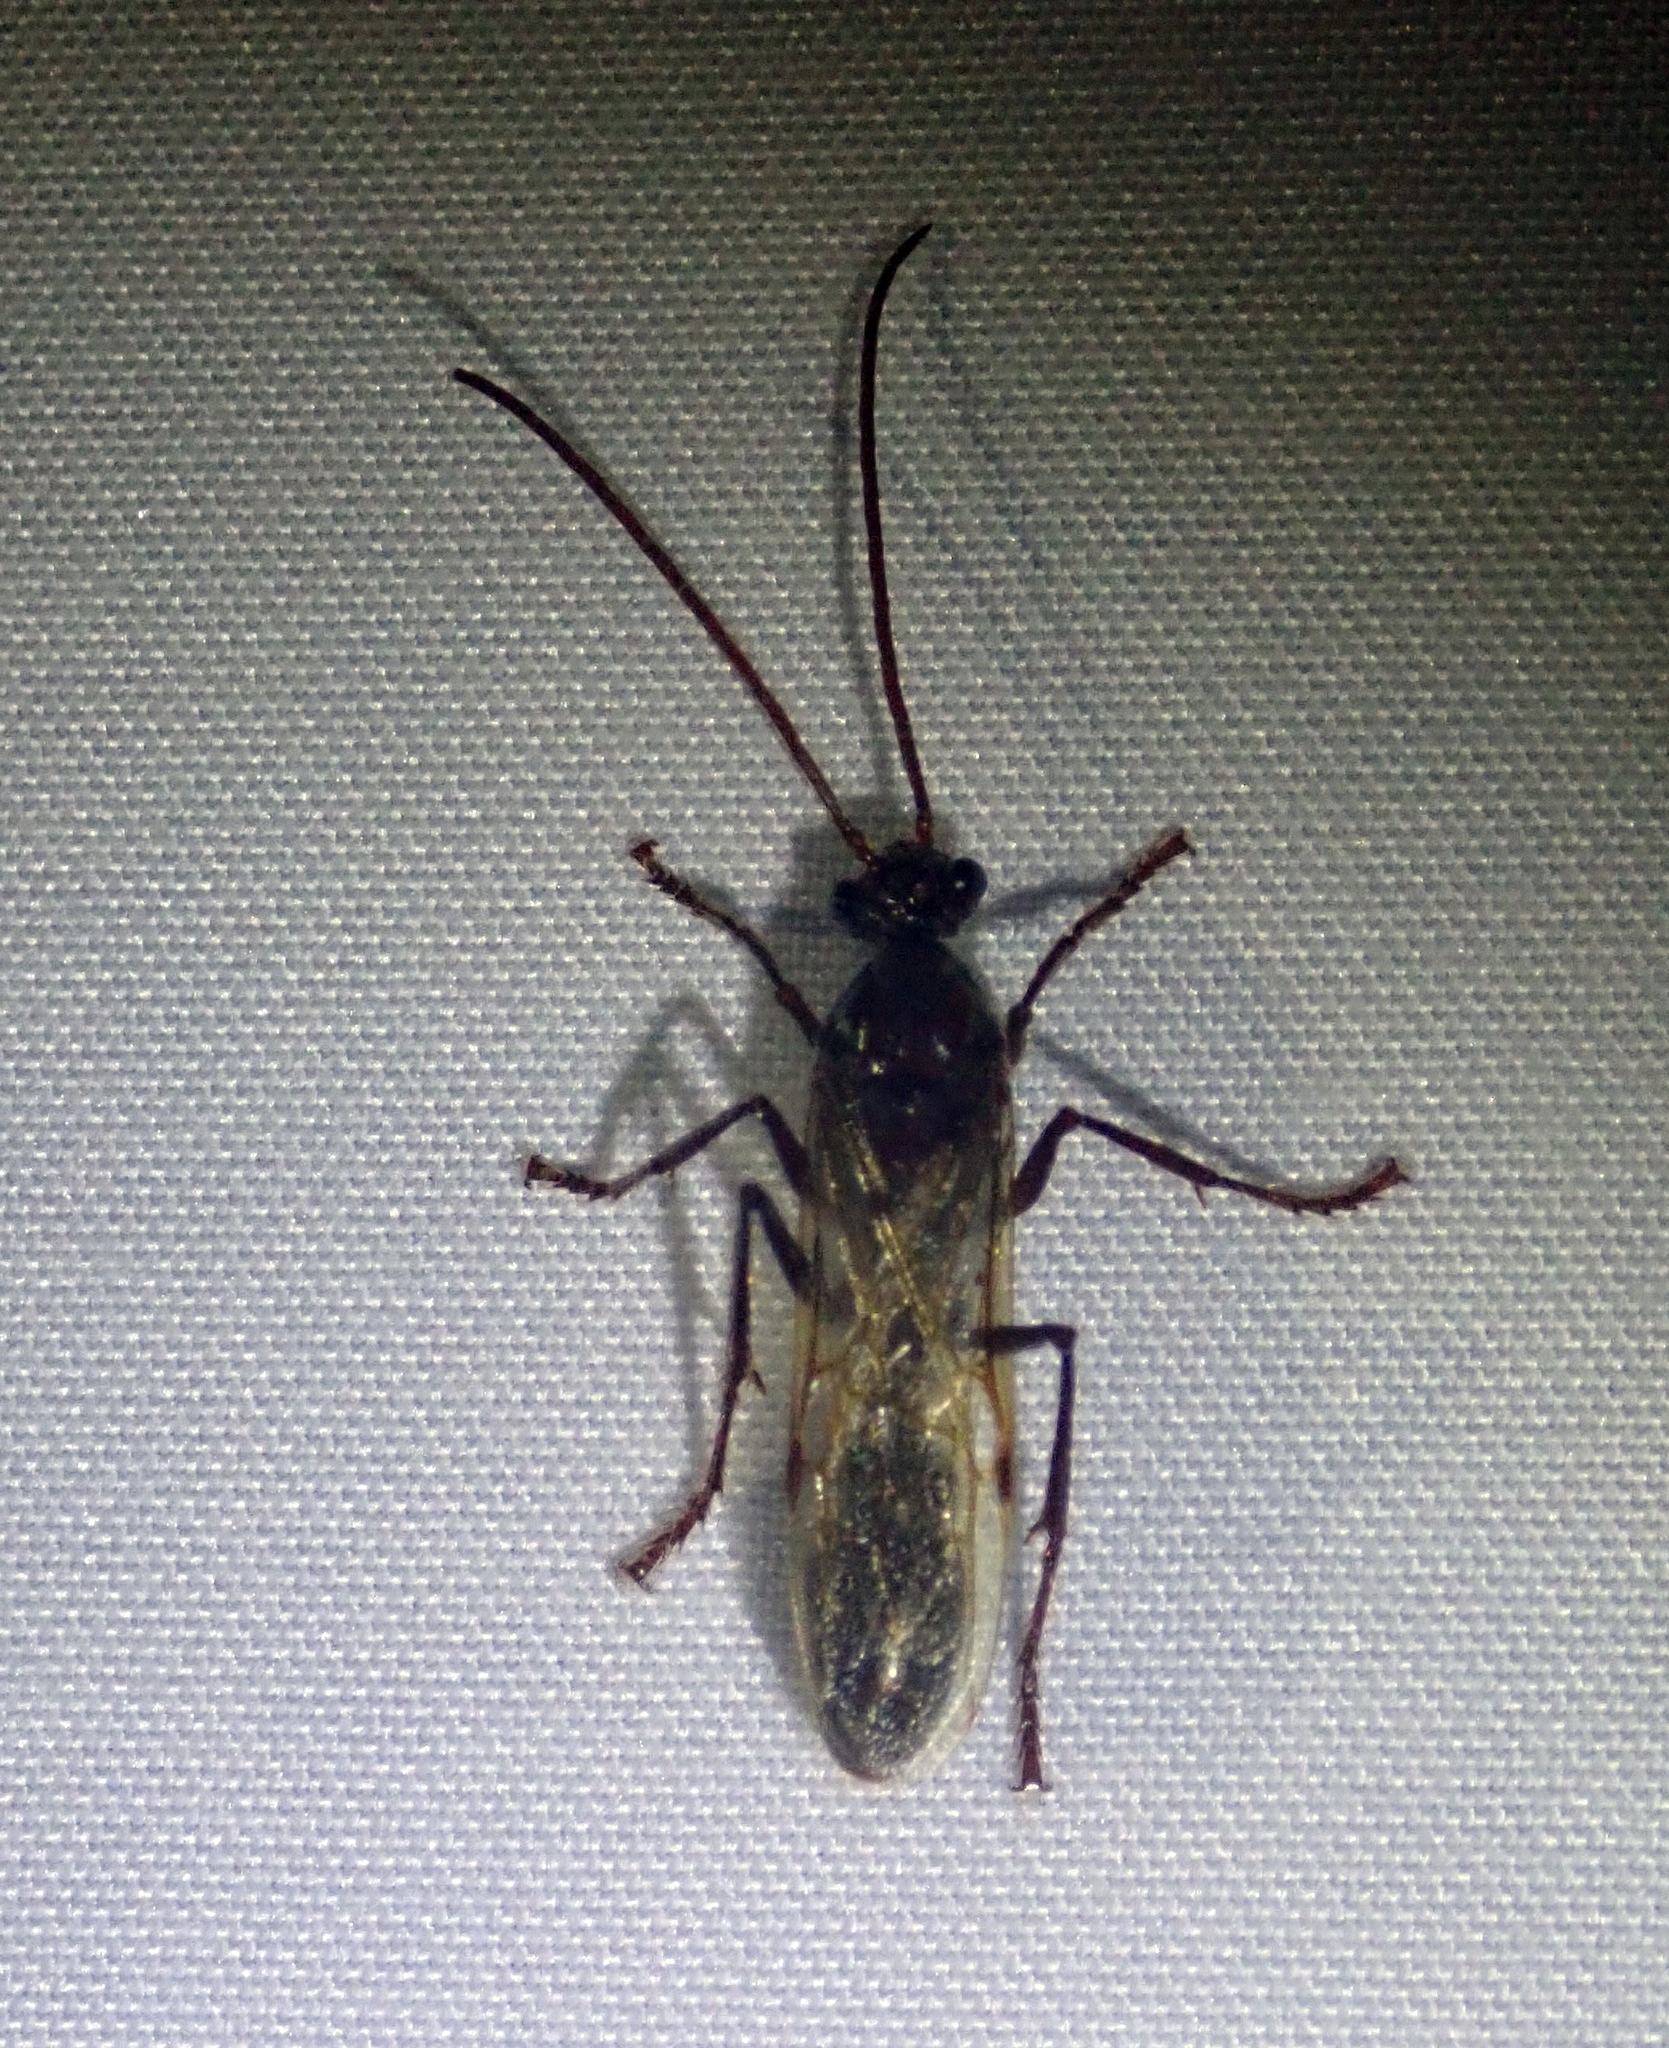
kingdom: Animalia
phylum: Arthropoda
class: Insecta
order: Hymenoptera
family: Formicidae
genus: Paraponera
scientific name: Paraponera clavata
